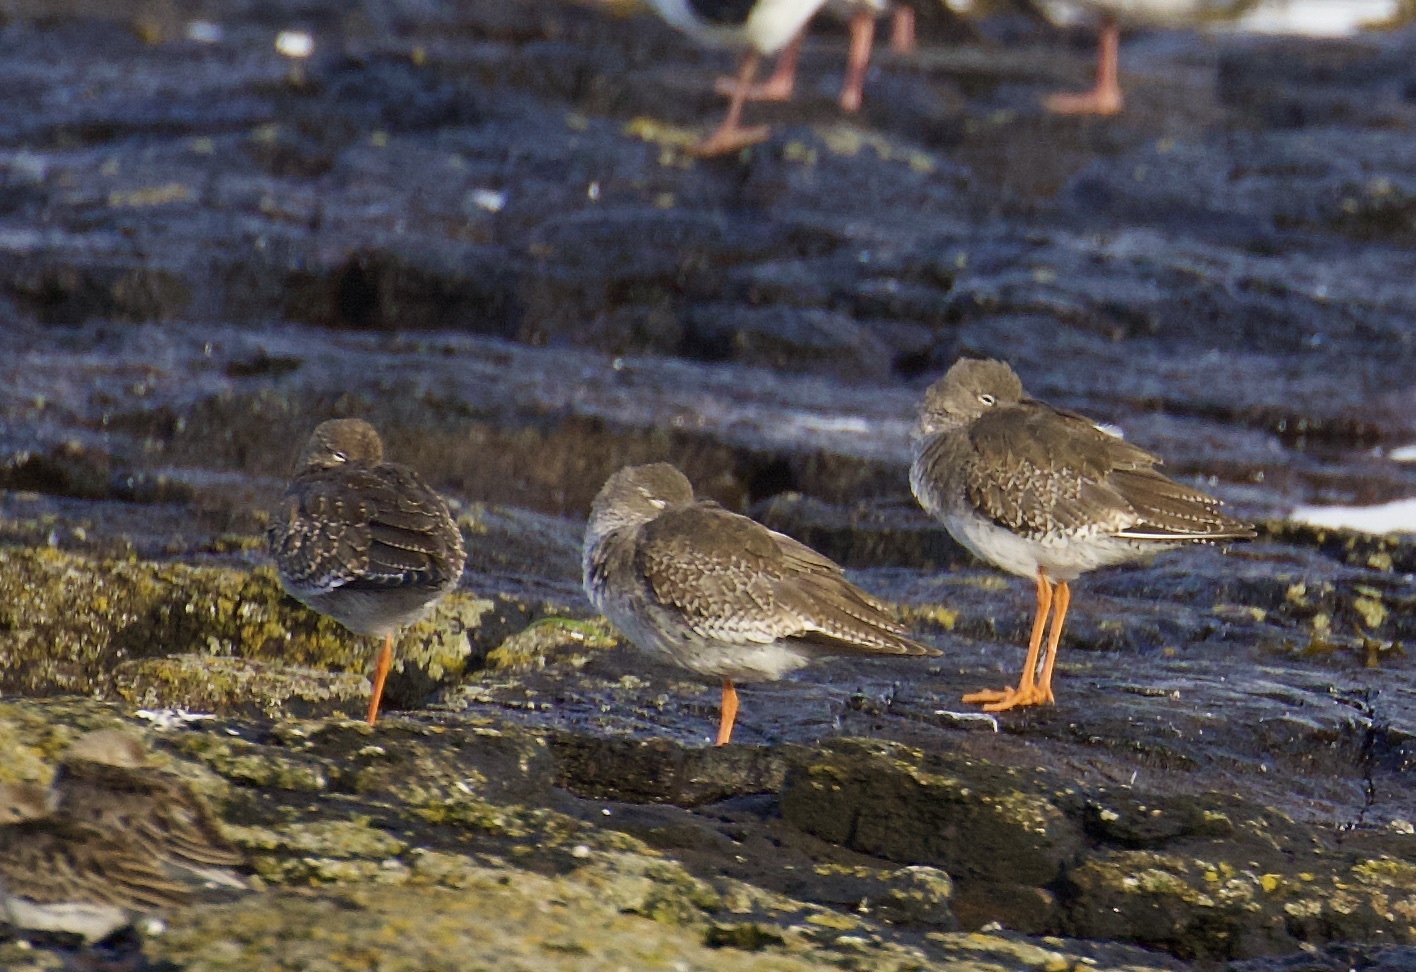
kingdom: Animalia
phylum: Chordata
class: Aves
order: Charadriiformes
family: Scolopacidae
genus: Tringa
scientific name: Tringa totanus
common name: Common redshank
